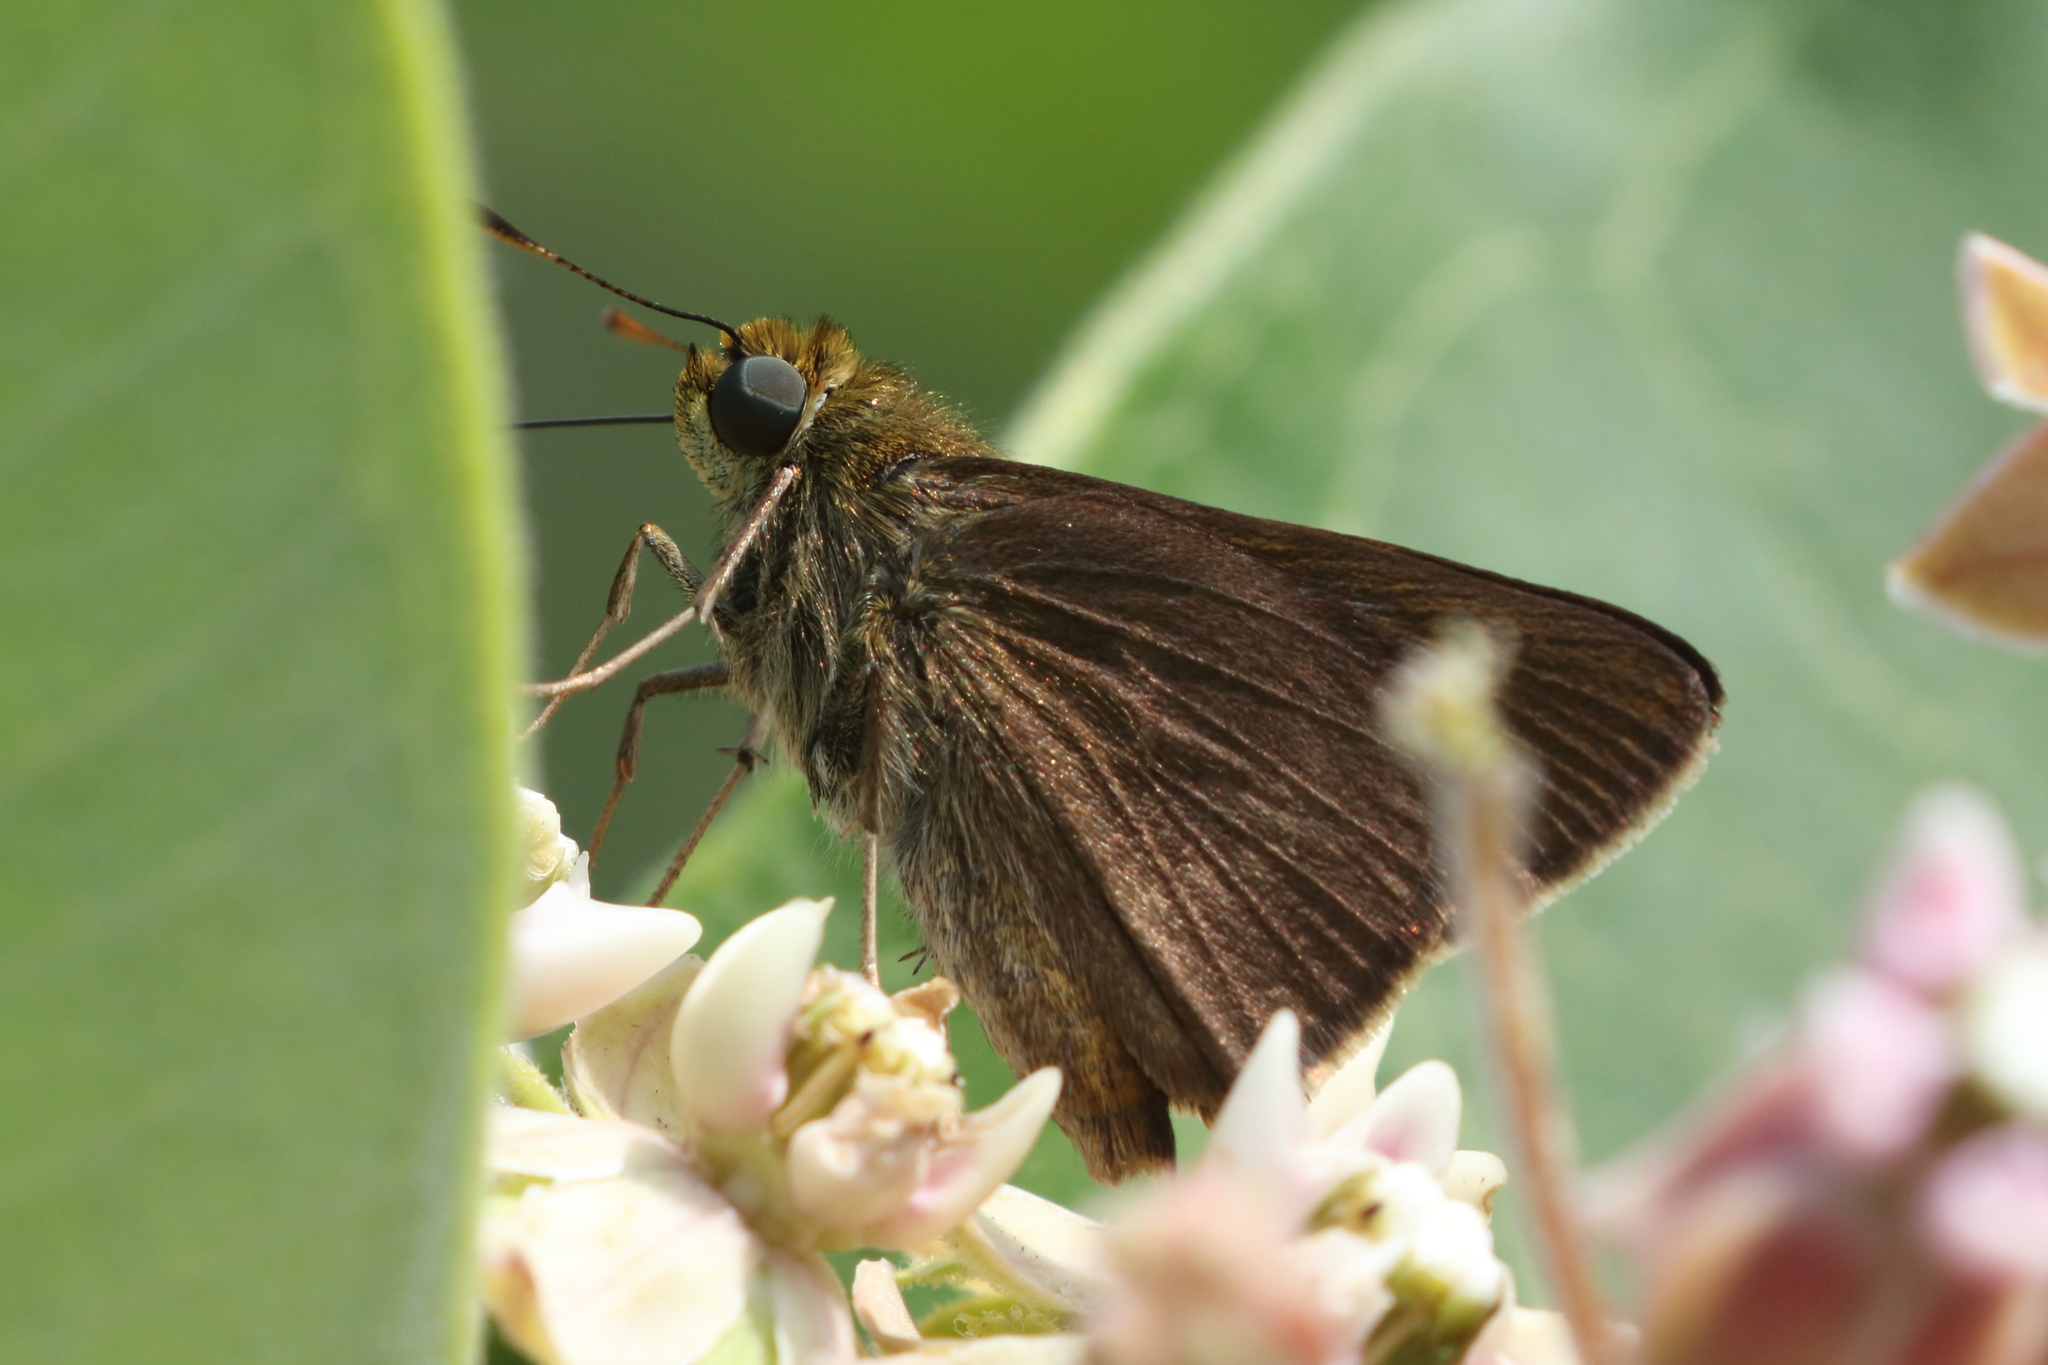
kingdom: Animalia
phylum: Arthropoda
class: Insecta
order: Lepidoptera
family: Hesperiidae
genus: Euphyes
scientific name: Euphyes vestris
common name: Dun skipper
